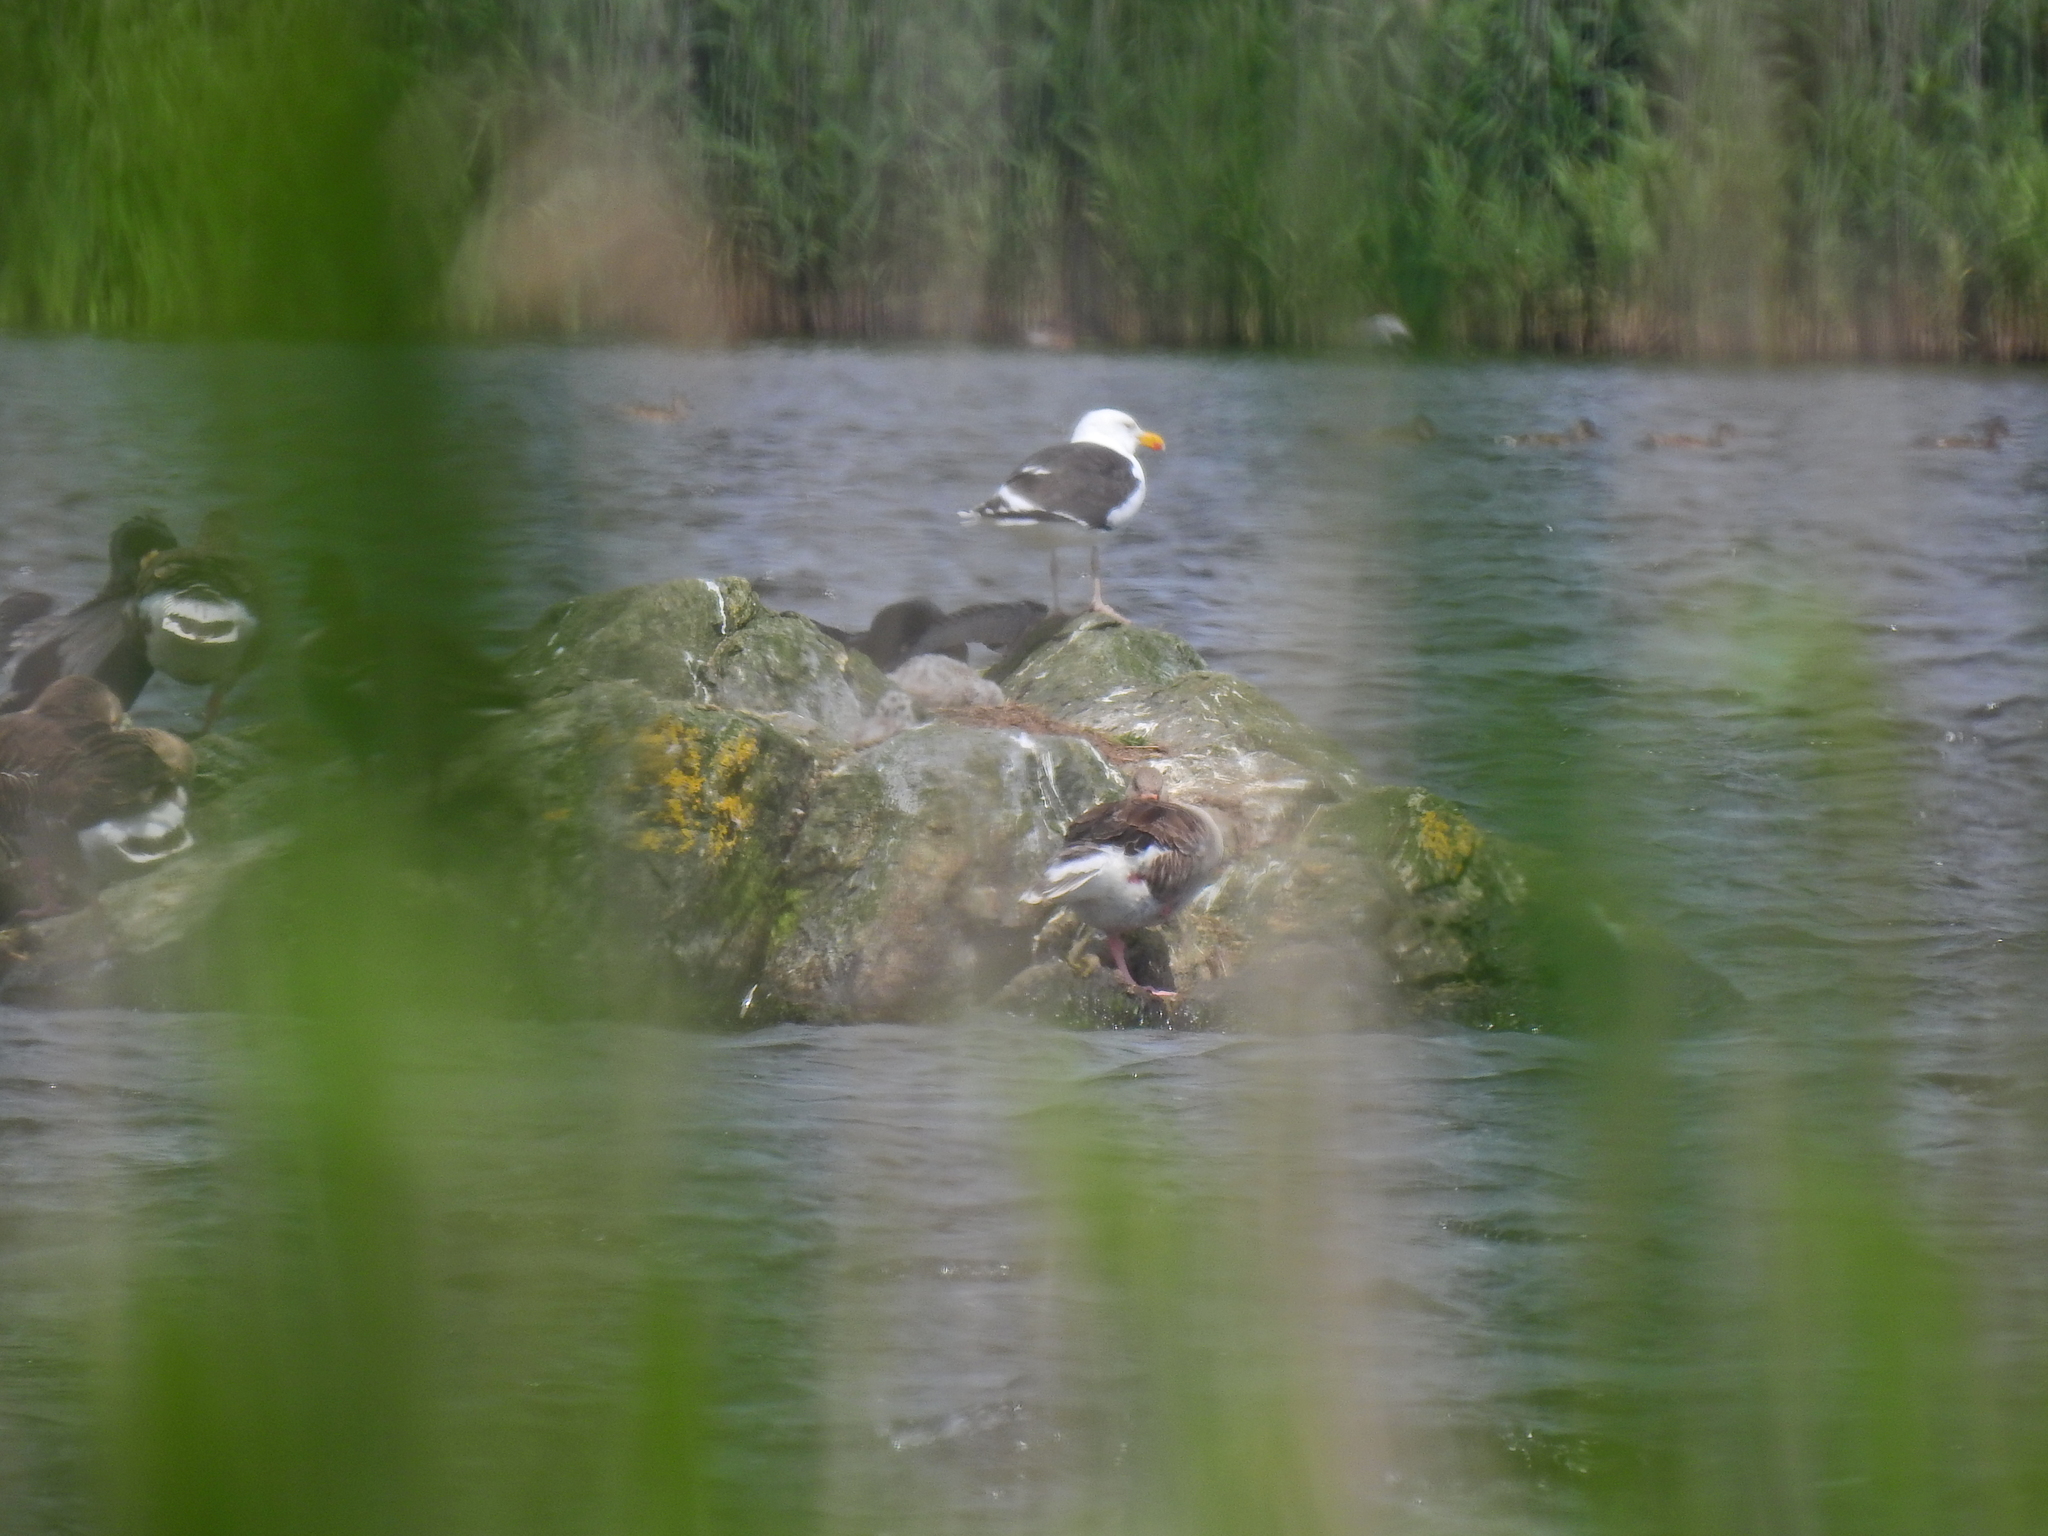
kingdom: Animalia
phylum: Chordata
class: Aves
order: Charadriiformes
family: Laridae
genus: Larus
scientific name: Larus fuscus
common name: Lesser black-backed gull
